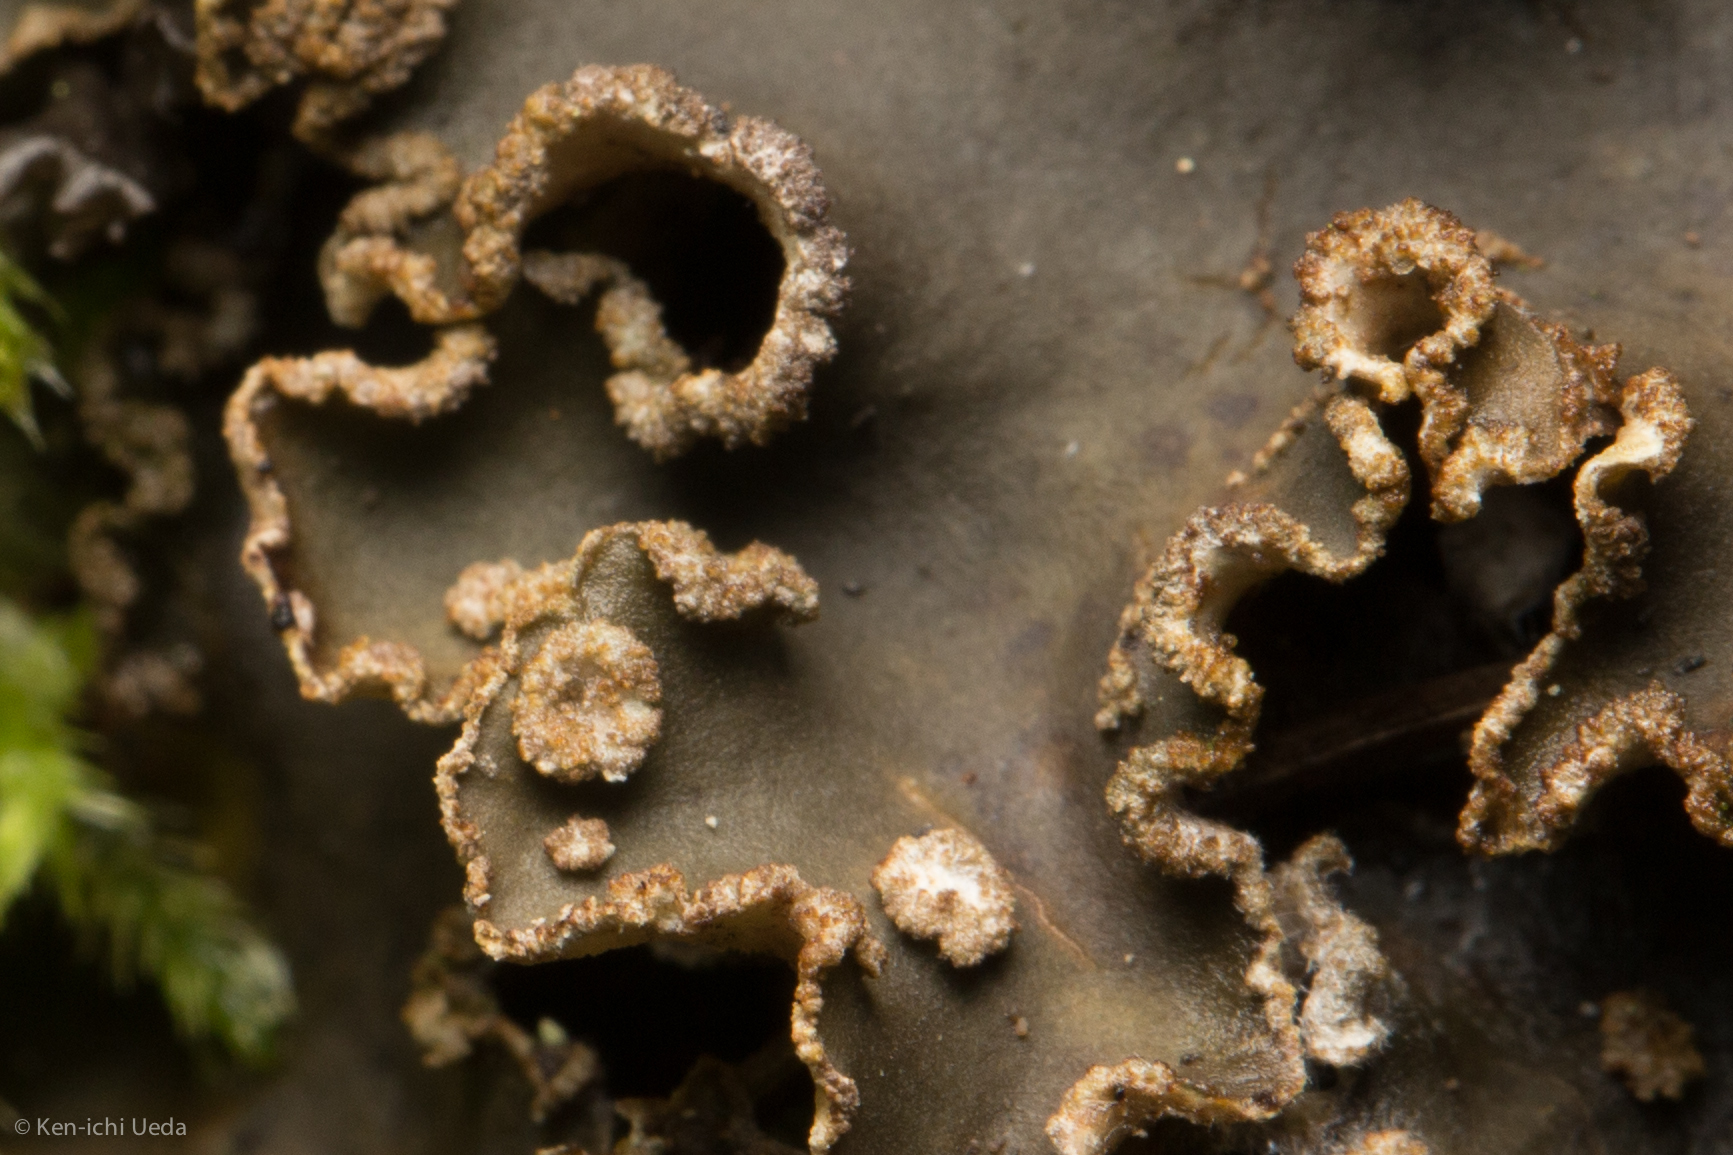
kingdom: Fungi
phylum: Ascomycota
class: Lecanoromycetes
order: Peltigerales
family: Peltigeraceae
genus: Peltigera
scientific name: Peltigera collina
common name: Gritty tree pelt lichen
